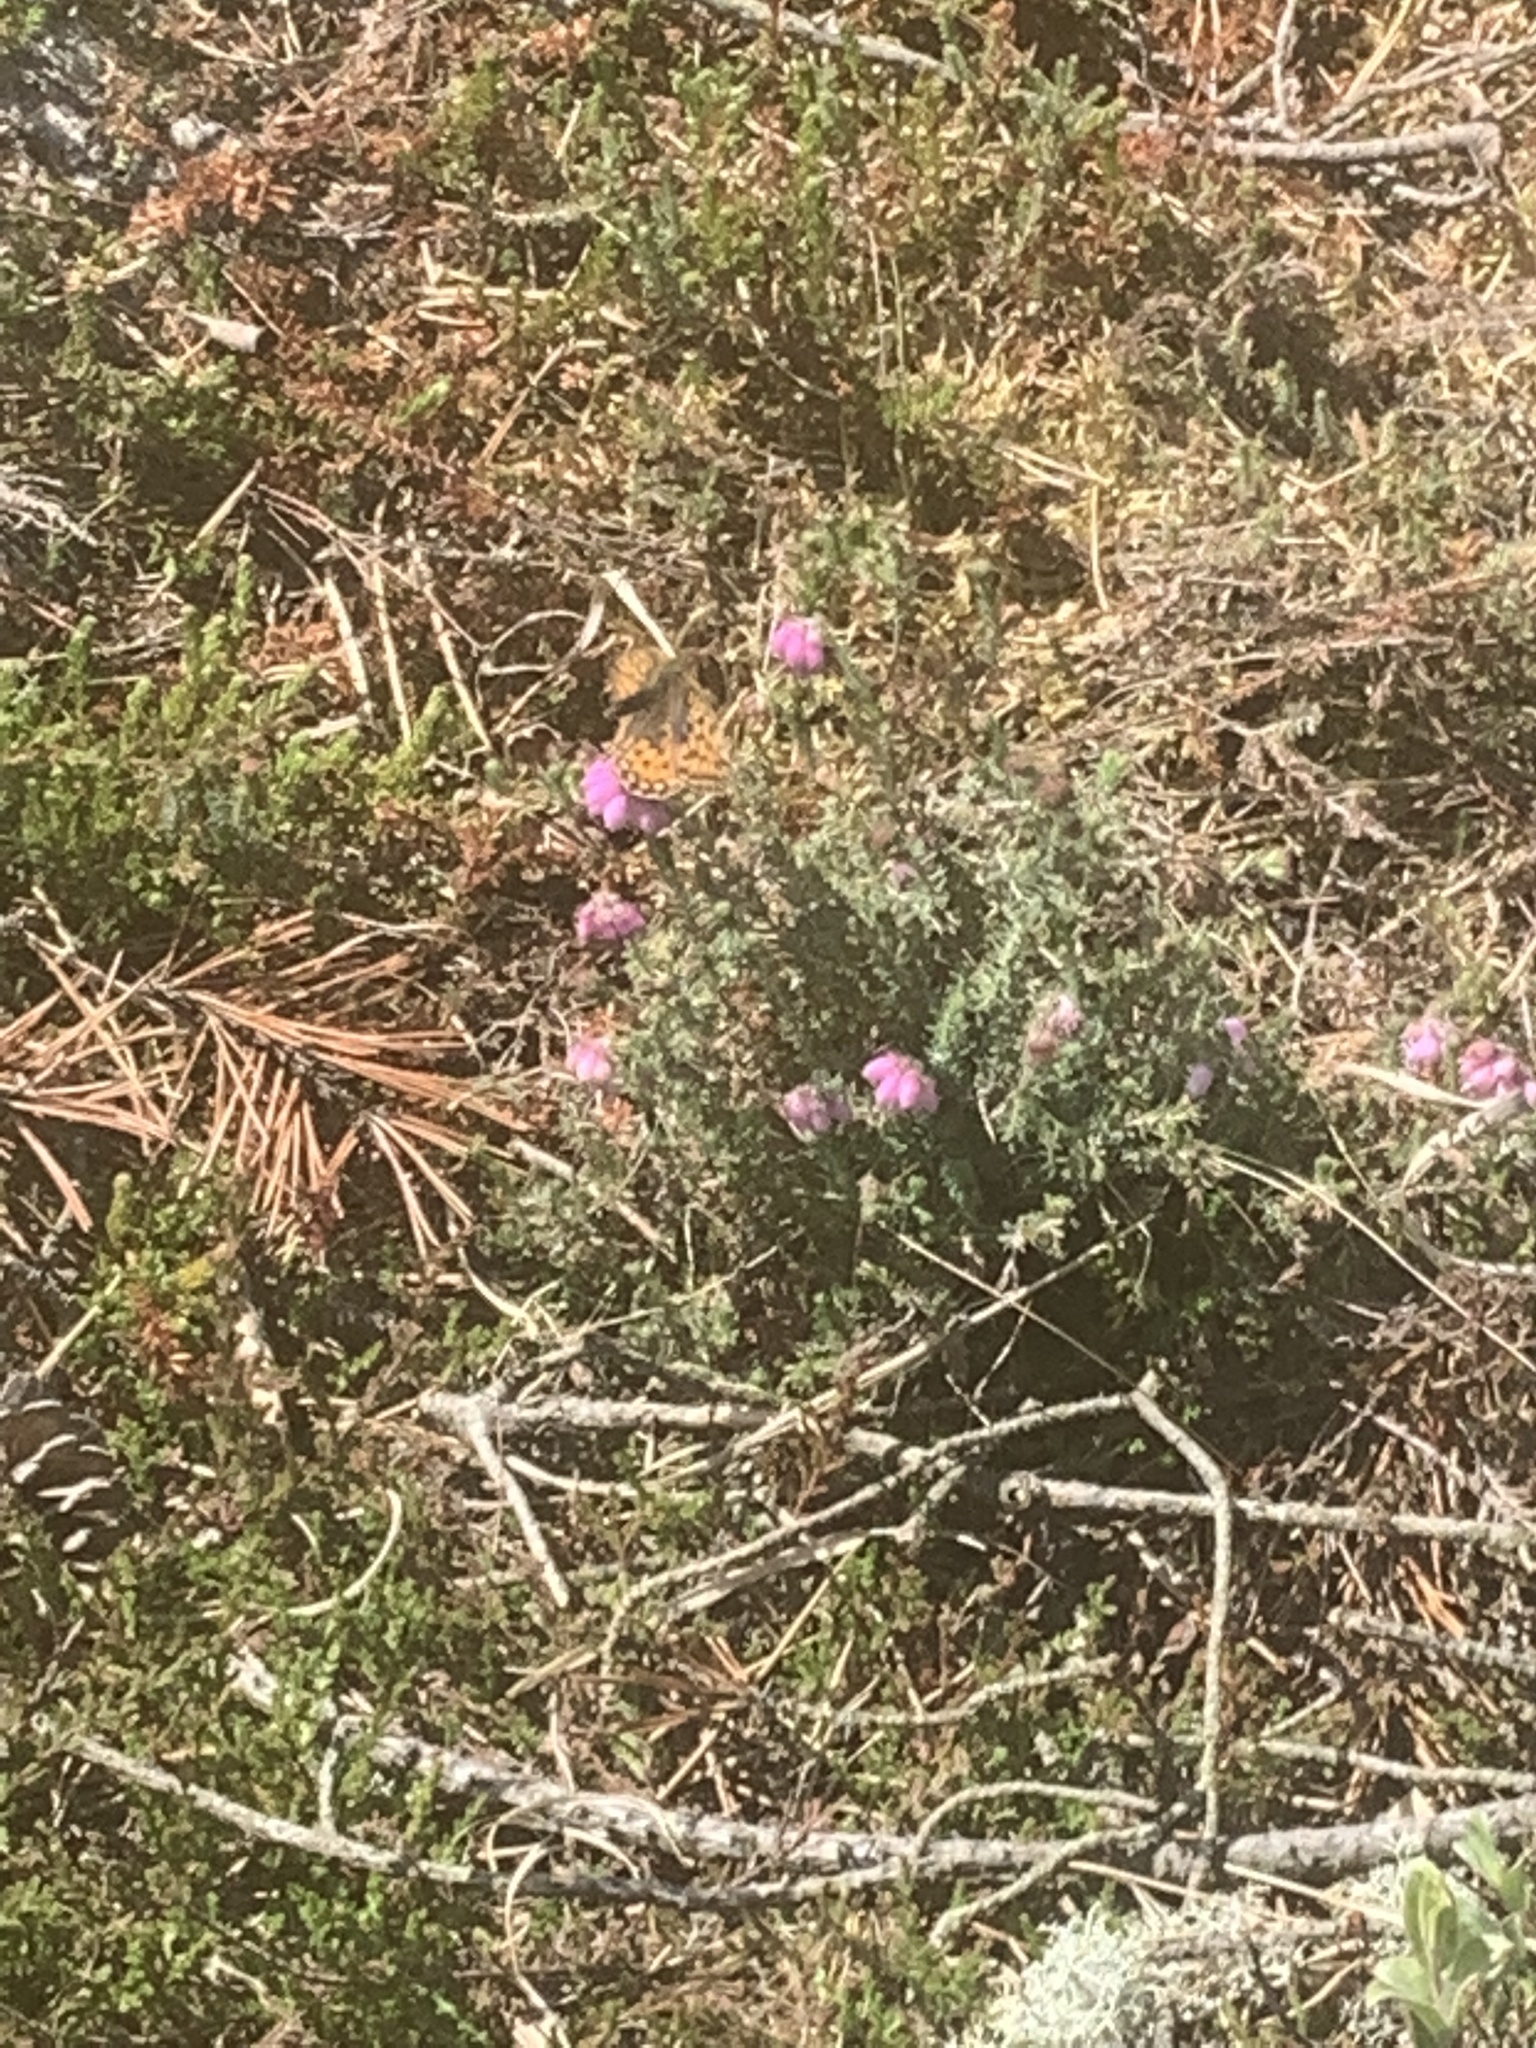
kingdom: Animalia
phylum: Arthropoda
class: Insecta
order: Lepidoptera
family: Nymphalidae
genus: Fabriciana
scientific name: Fabriciana niobe
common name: Niobe fritillary
